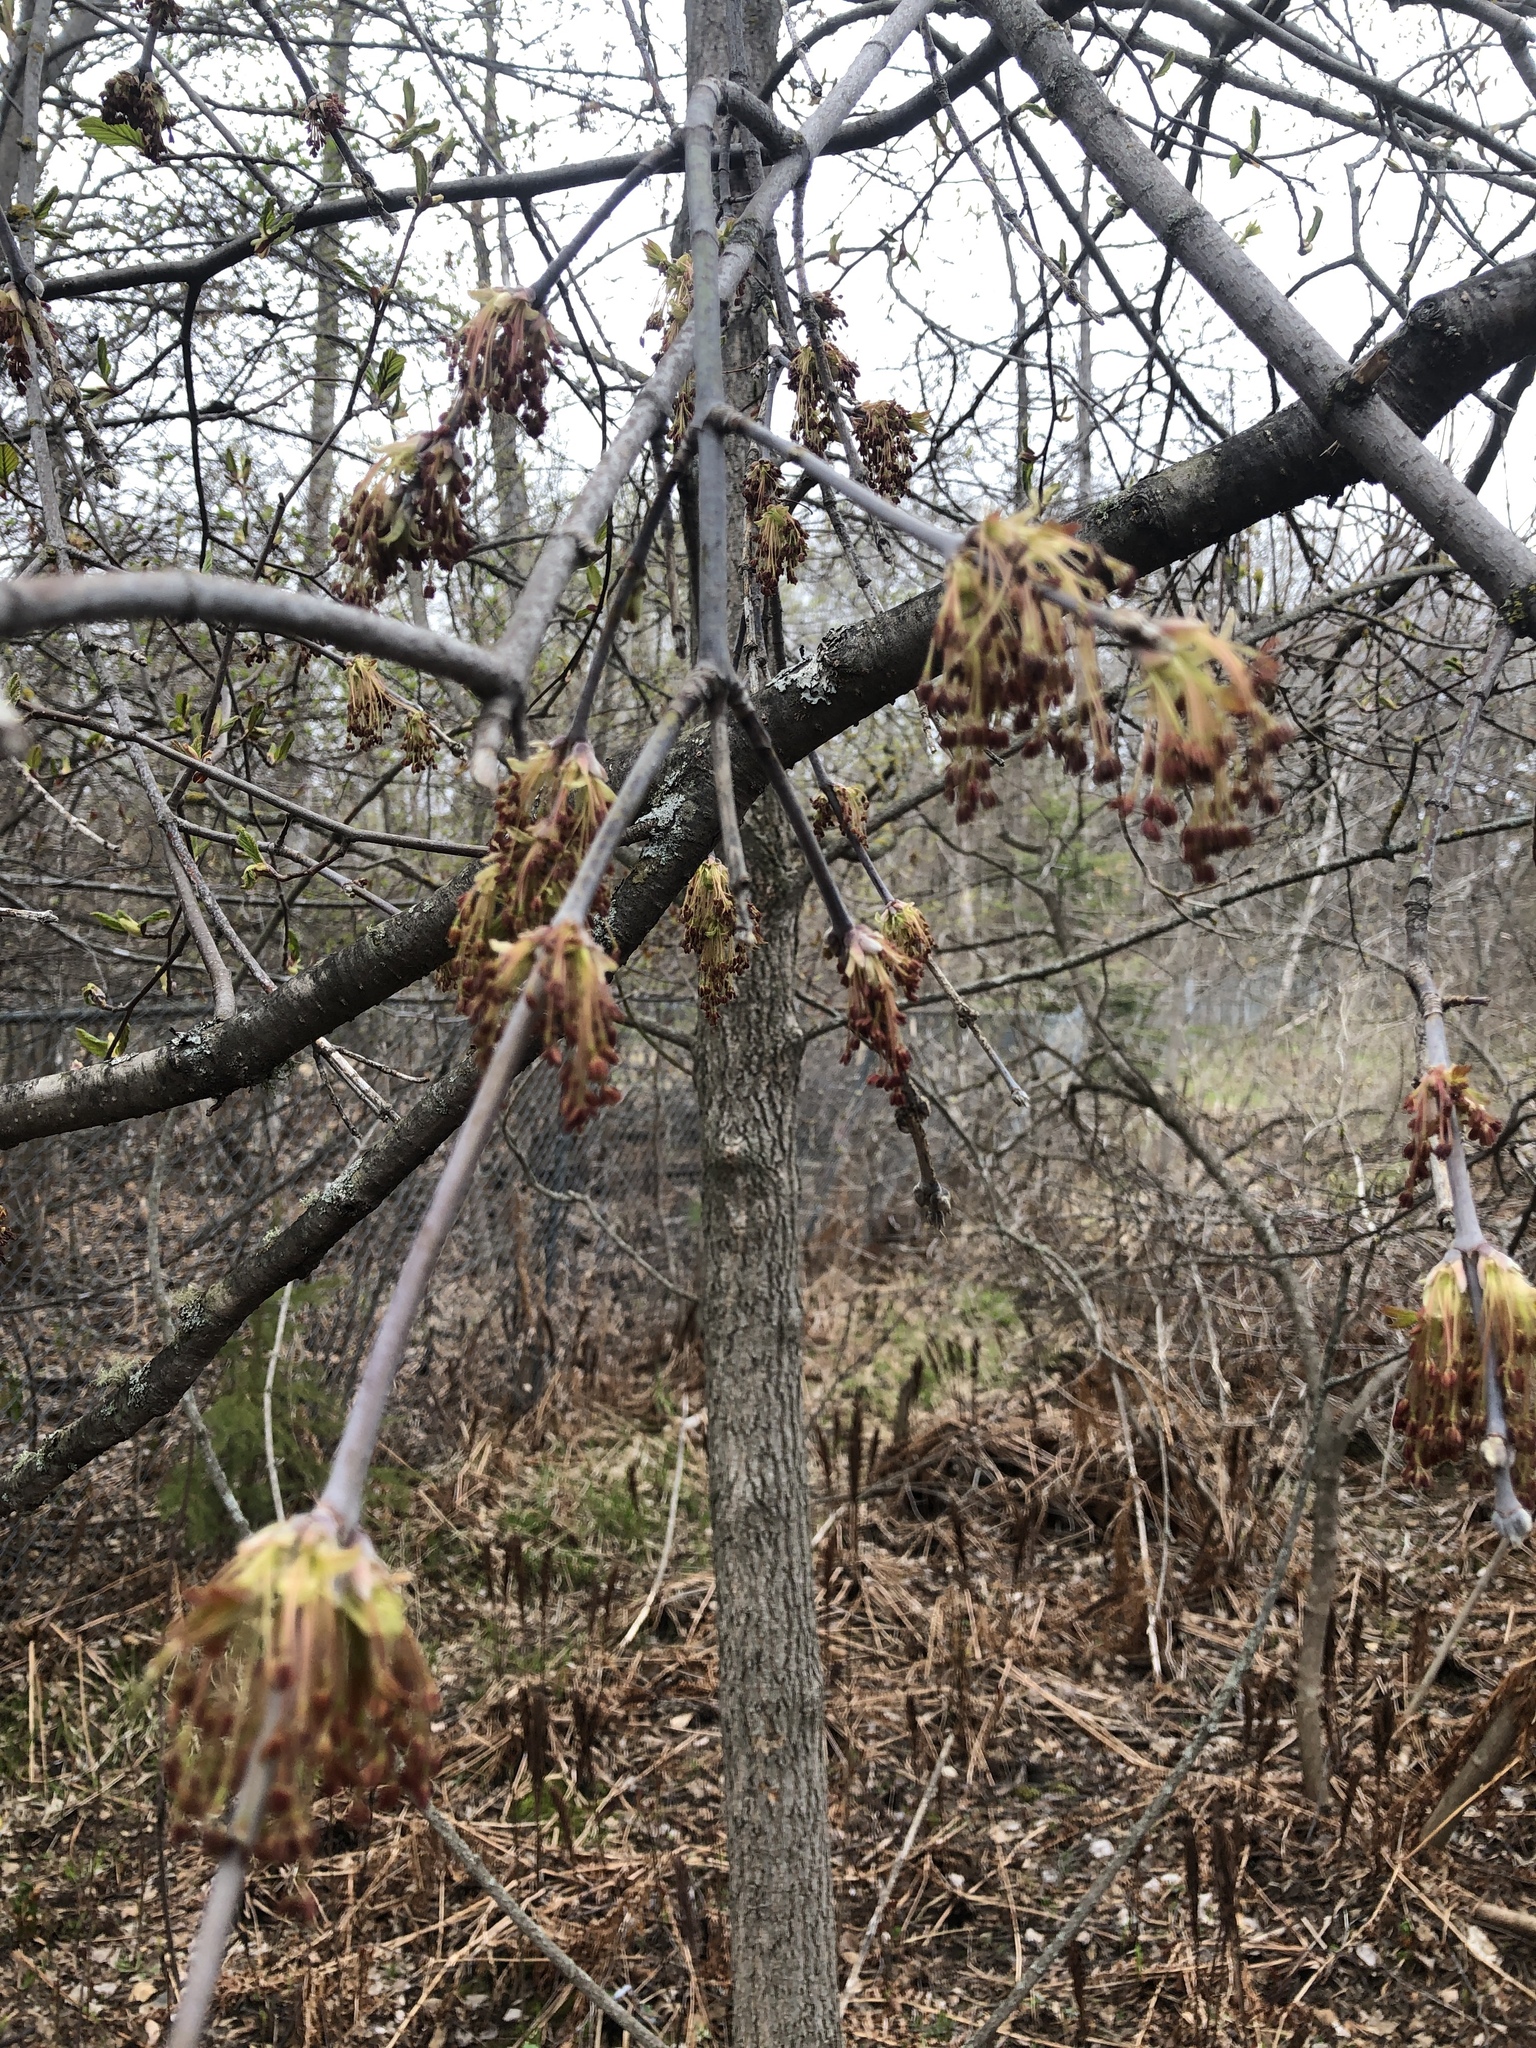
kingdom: Plantae
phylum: Tracheophyta
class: Magnoliopsida
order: Sapindales
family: Sapindaceae
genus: Acer
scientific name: Acer negundo
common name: Ashleaf maple
